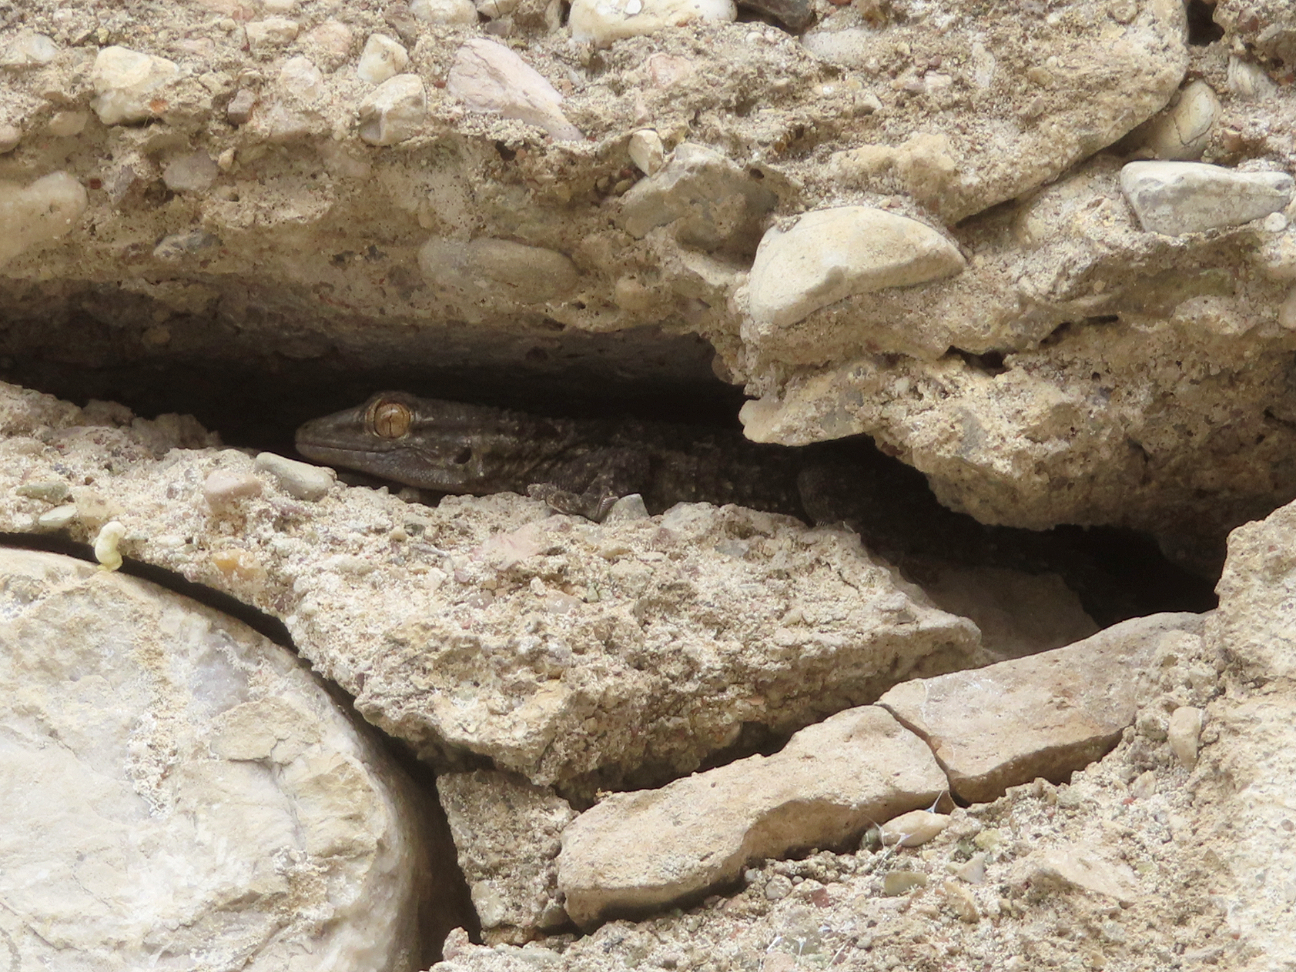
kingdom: Animalia
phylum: Chordata
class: Squamata
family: Phyllodactylidae
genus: Tarentola
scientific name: Tarentola mauritanica
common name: Moorish gecko
